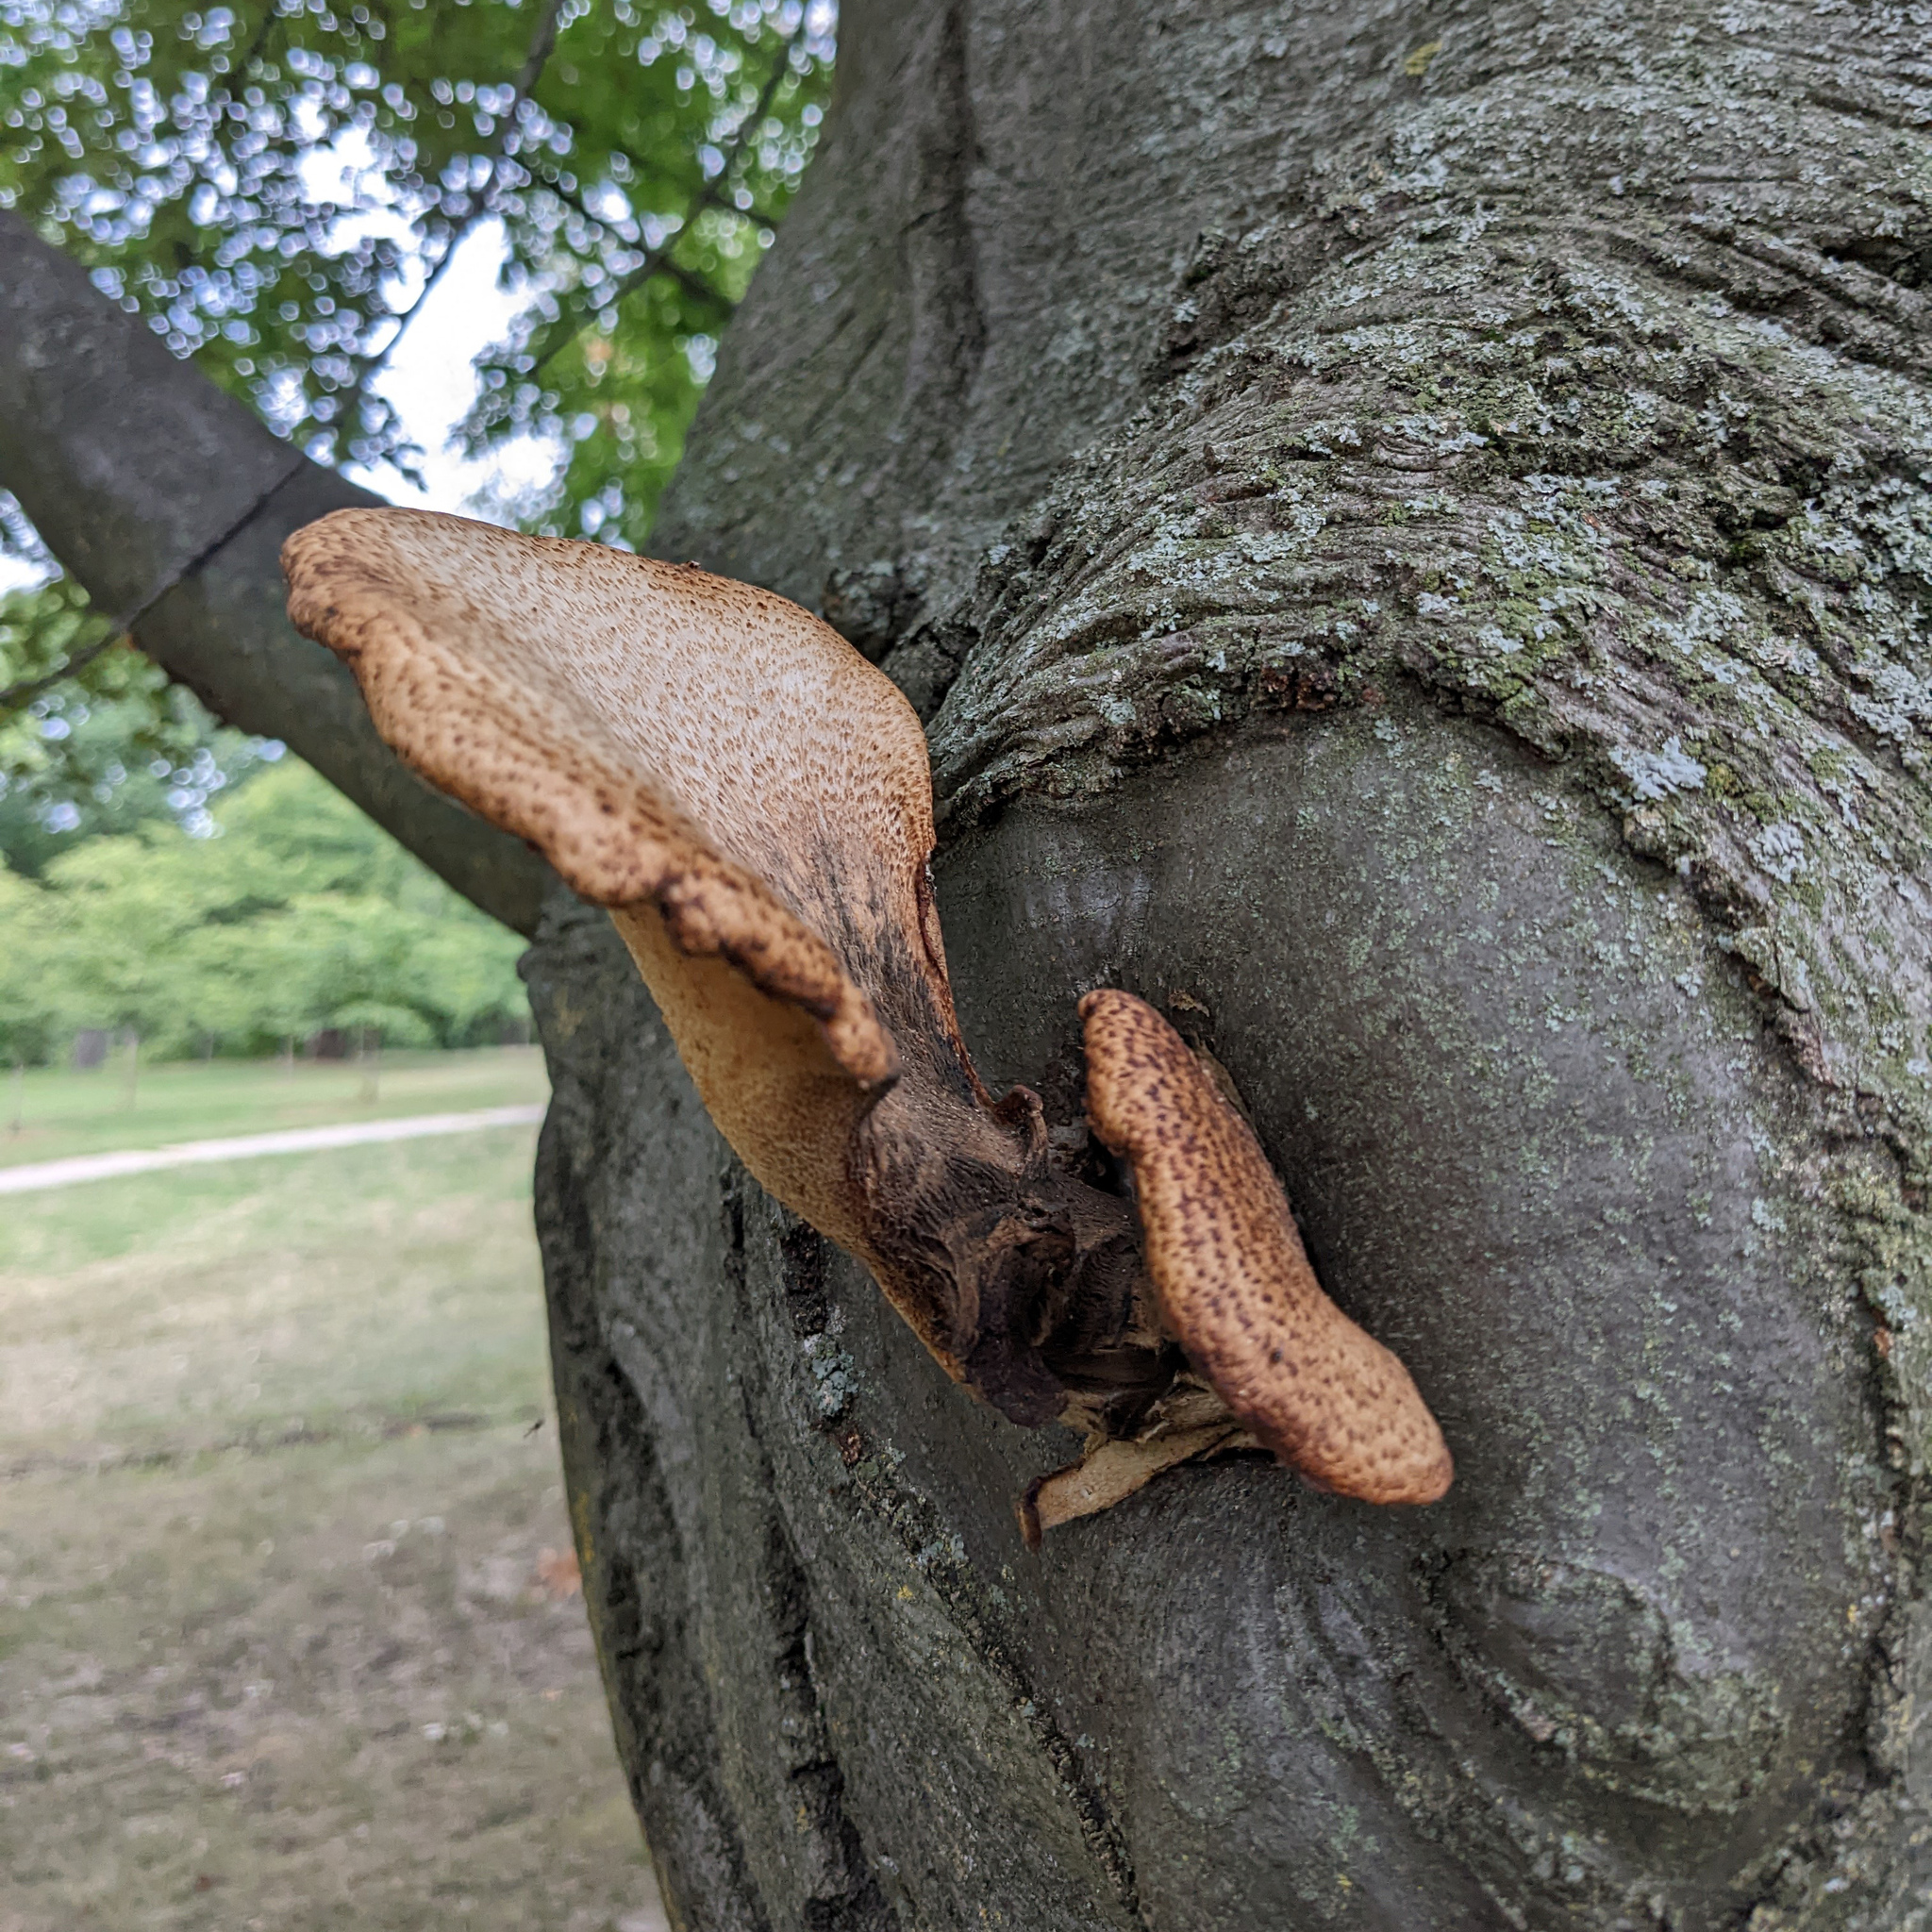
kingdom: Fungi
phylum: Basidiomycota
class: Agaricomycetes
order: Polyporales
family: Polyporaceae
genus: Cerioporus
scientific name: Cerioporus squamosus
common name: Dryad's saddle
